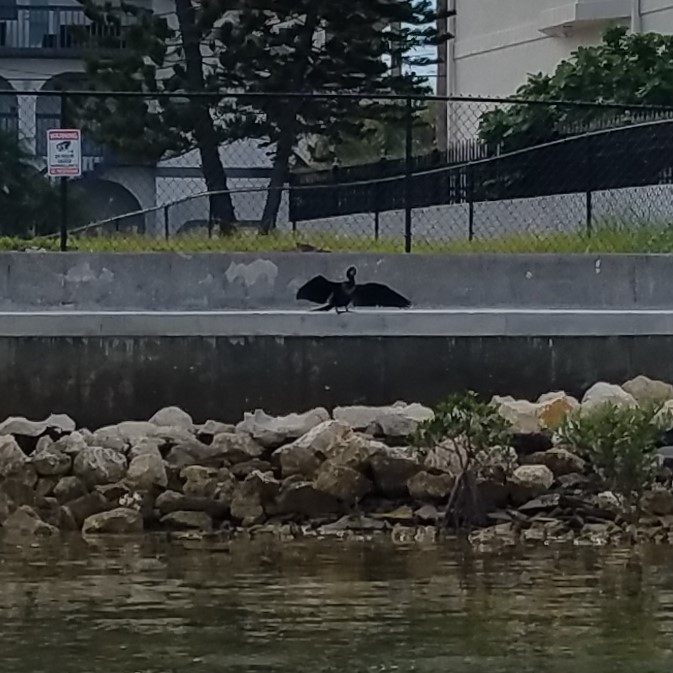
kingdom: Animalia
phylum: Chordata
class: Aves
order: Suliformes
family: Anhingidae
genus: Anhinga
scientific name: Anhinga anhinga
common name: Anhinga
